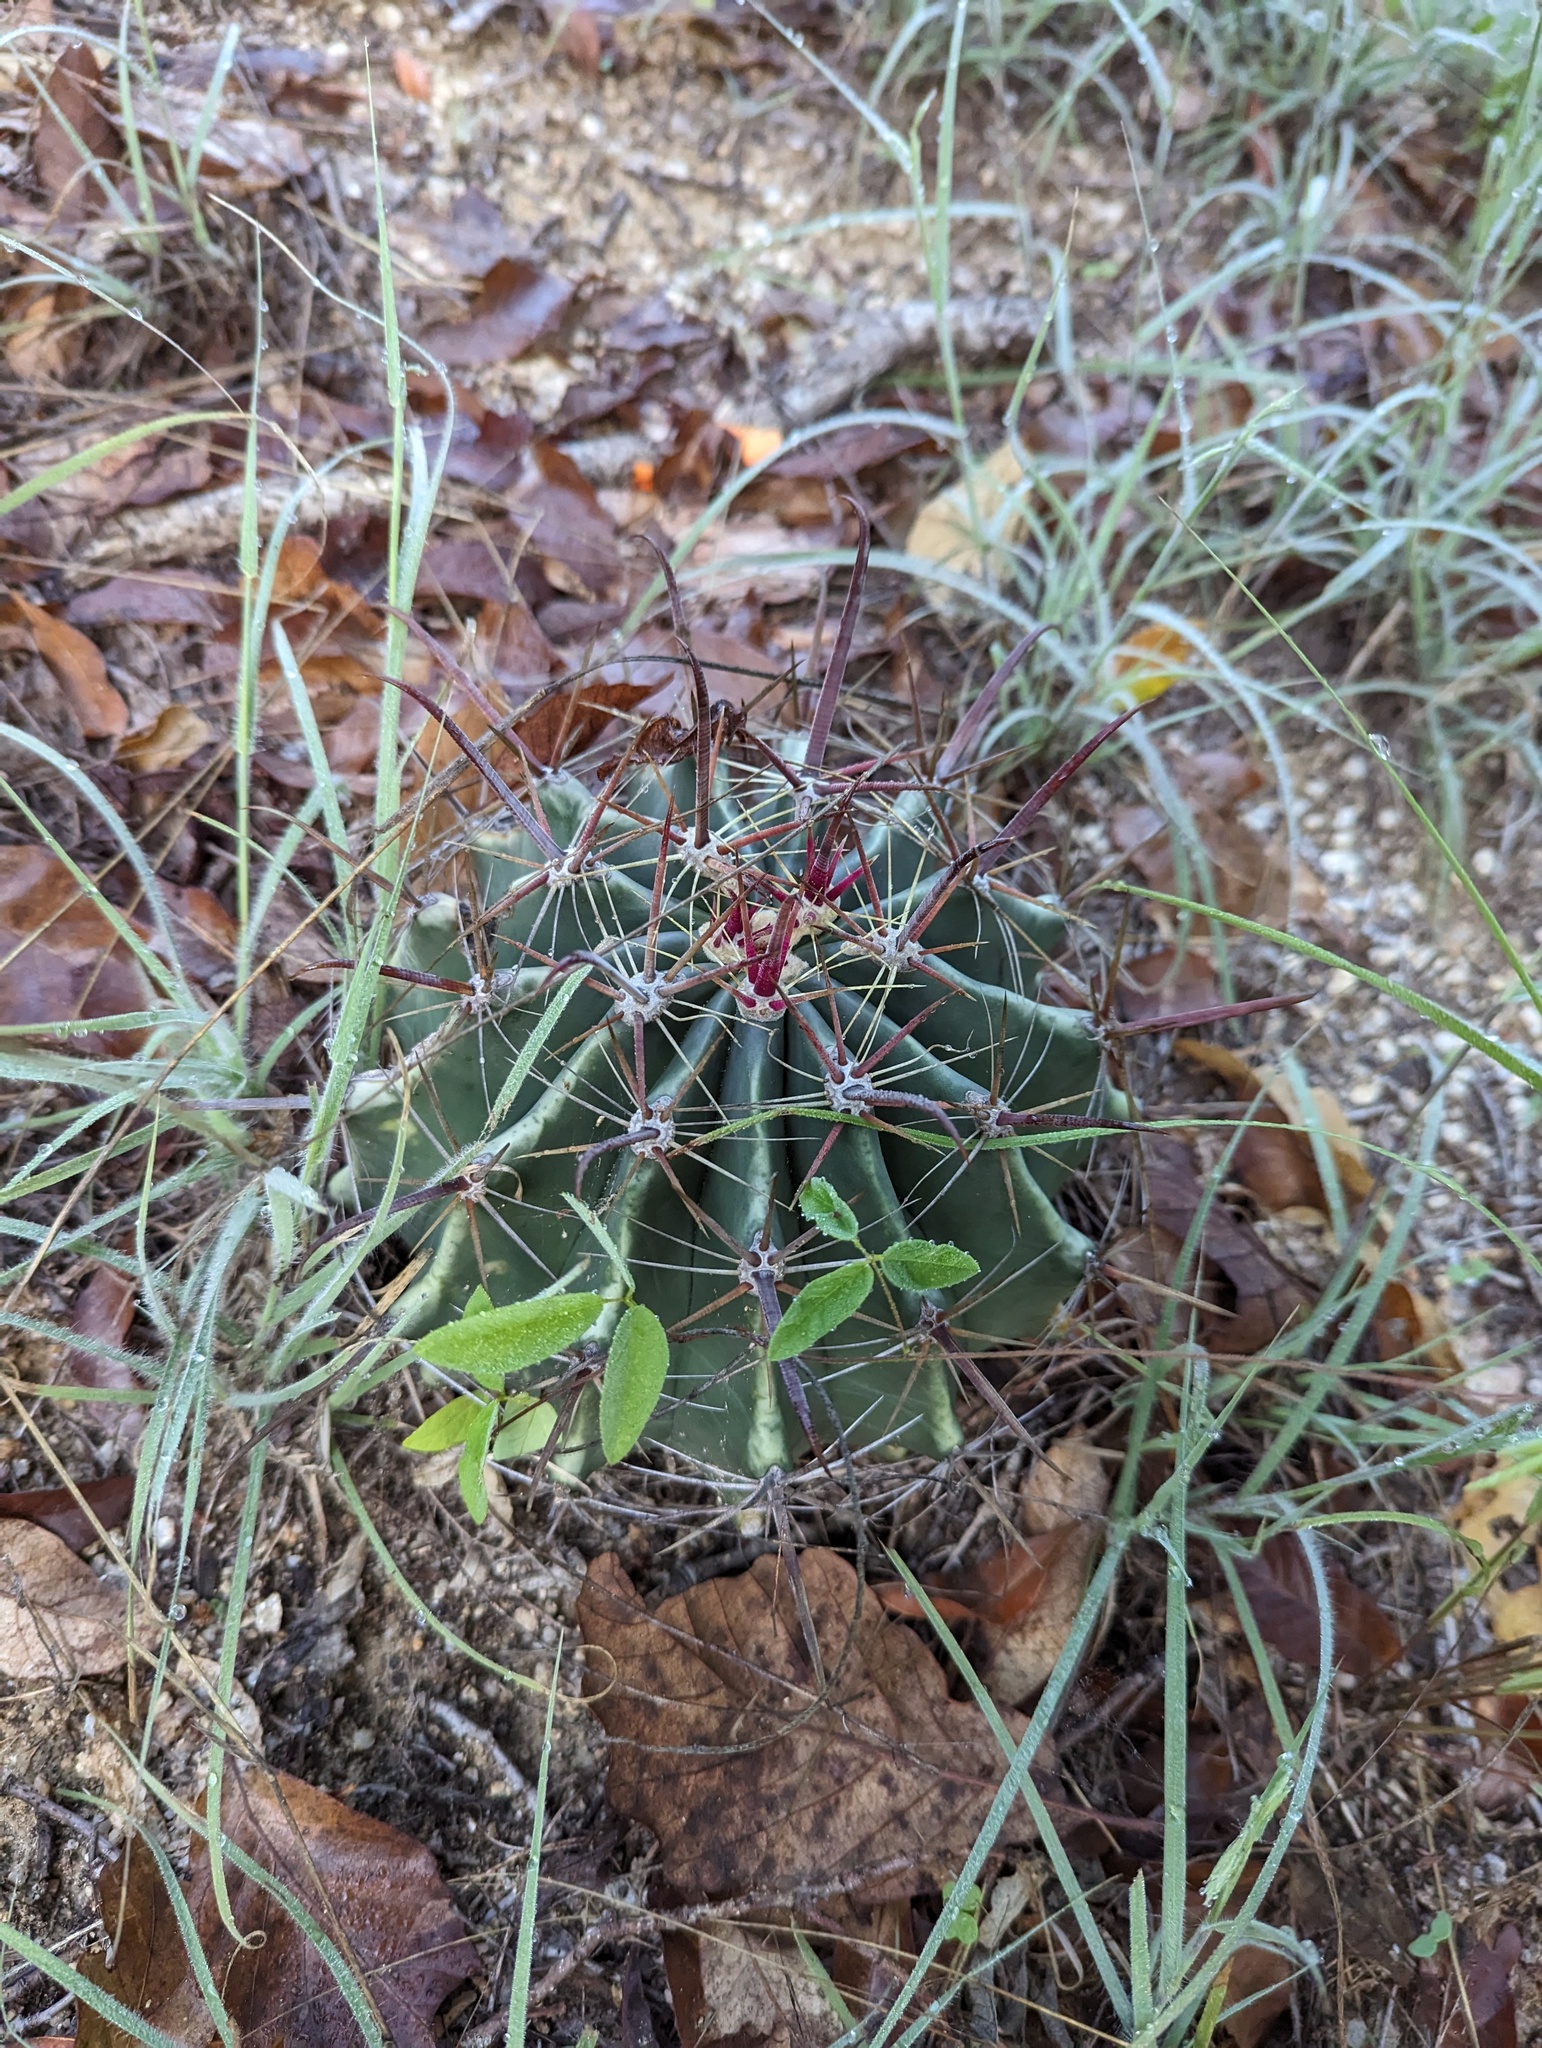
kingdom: Plantae
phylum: Tracheophyta
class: Magnoliopsida
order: Caryophyllales
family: Cactaceae
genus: Ferocactus
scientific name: Ferocactus townsendianus
